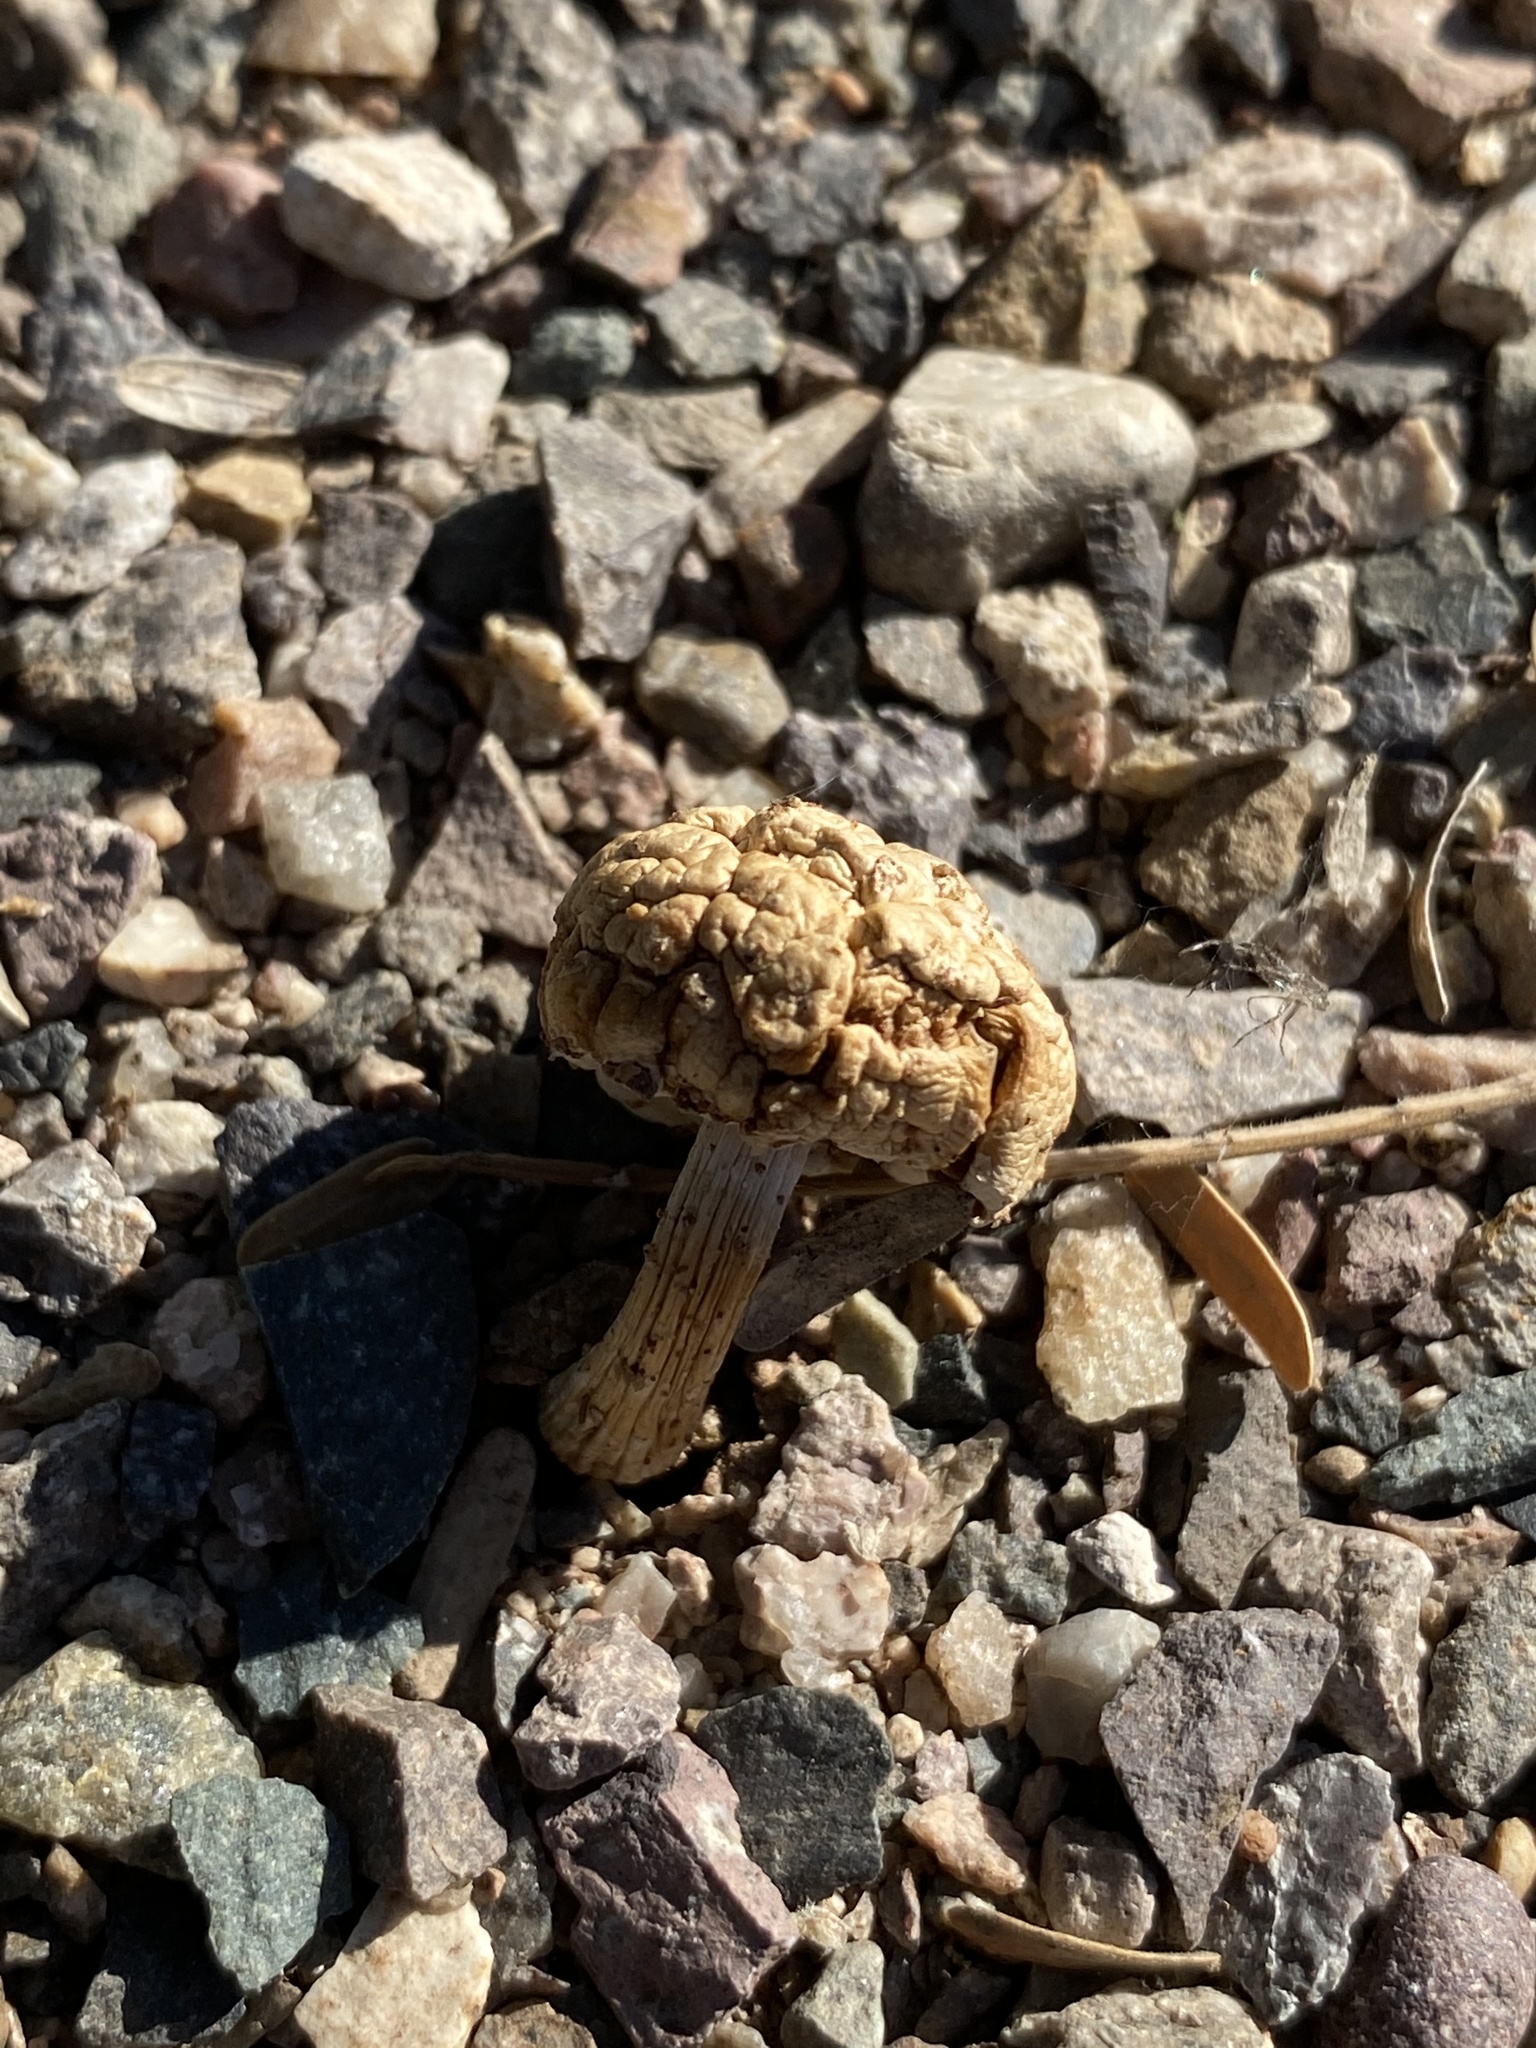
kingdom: Fungi
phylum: Basidiomycota
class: Agaricomycetes
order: Agaricales
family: Agaricaceae
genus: Agaricus
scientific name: Agaricus deserticola
